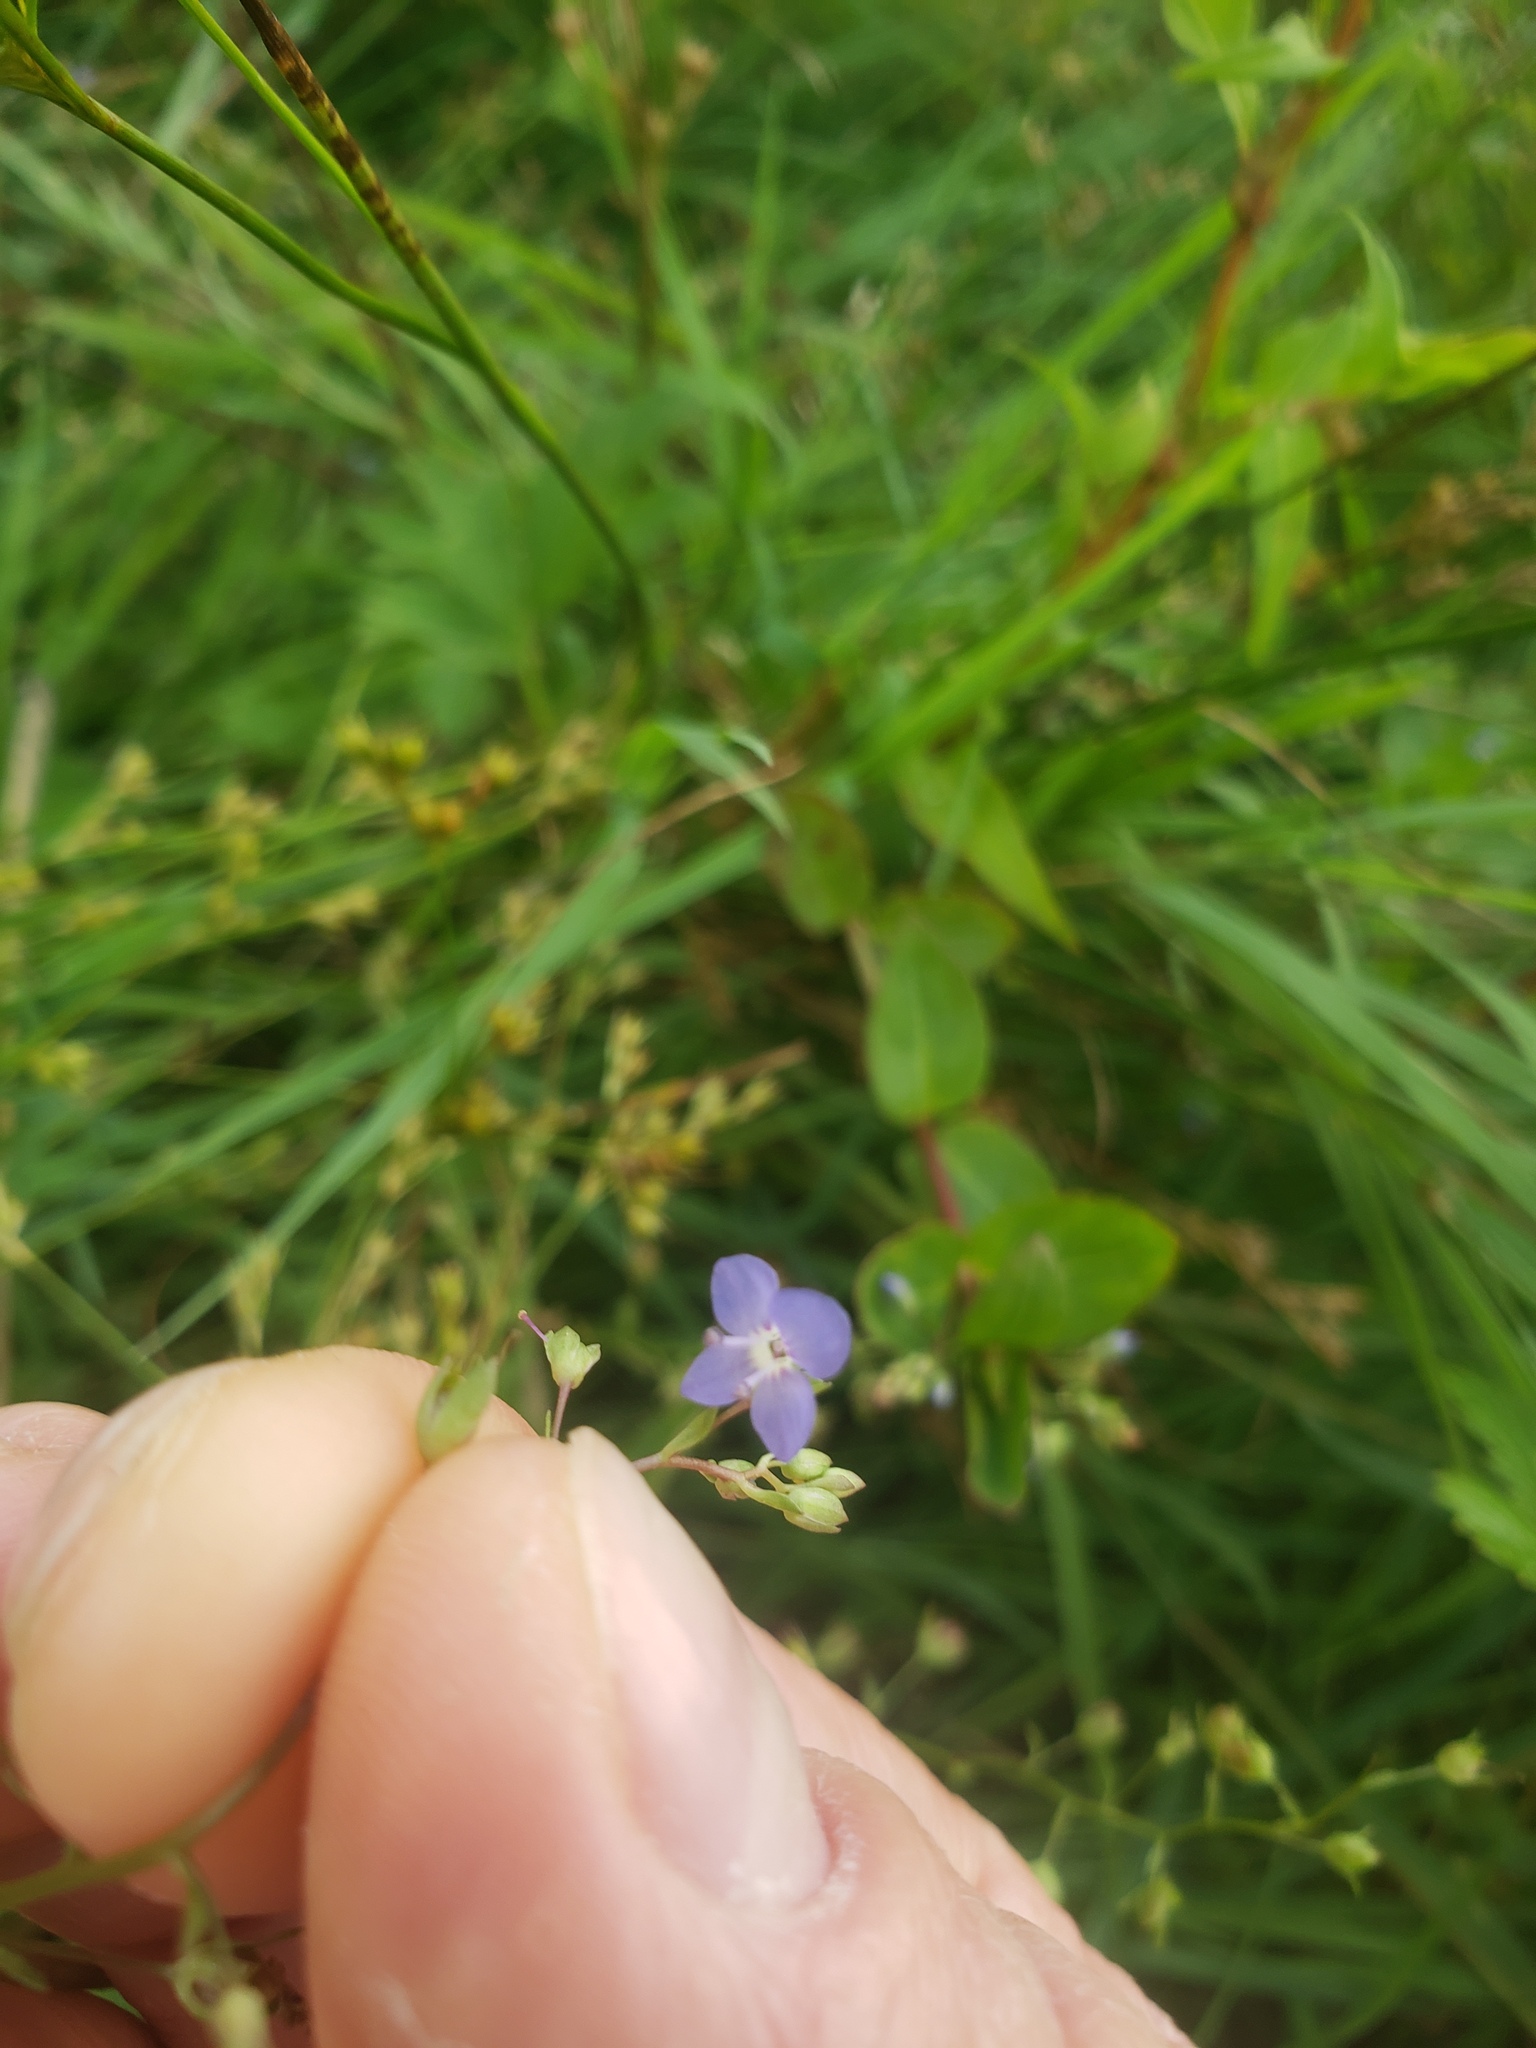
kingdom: Plantae
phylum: Tracheophyta
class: Magnoliopsida
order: Lamiales
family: Plantaginaceae
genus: Veronica
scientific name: Veronica americana
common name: American brooklime
